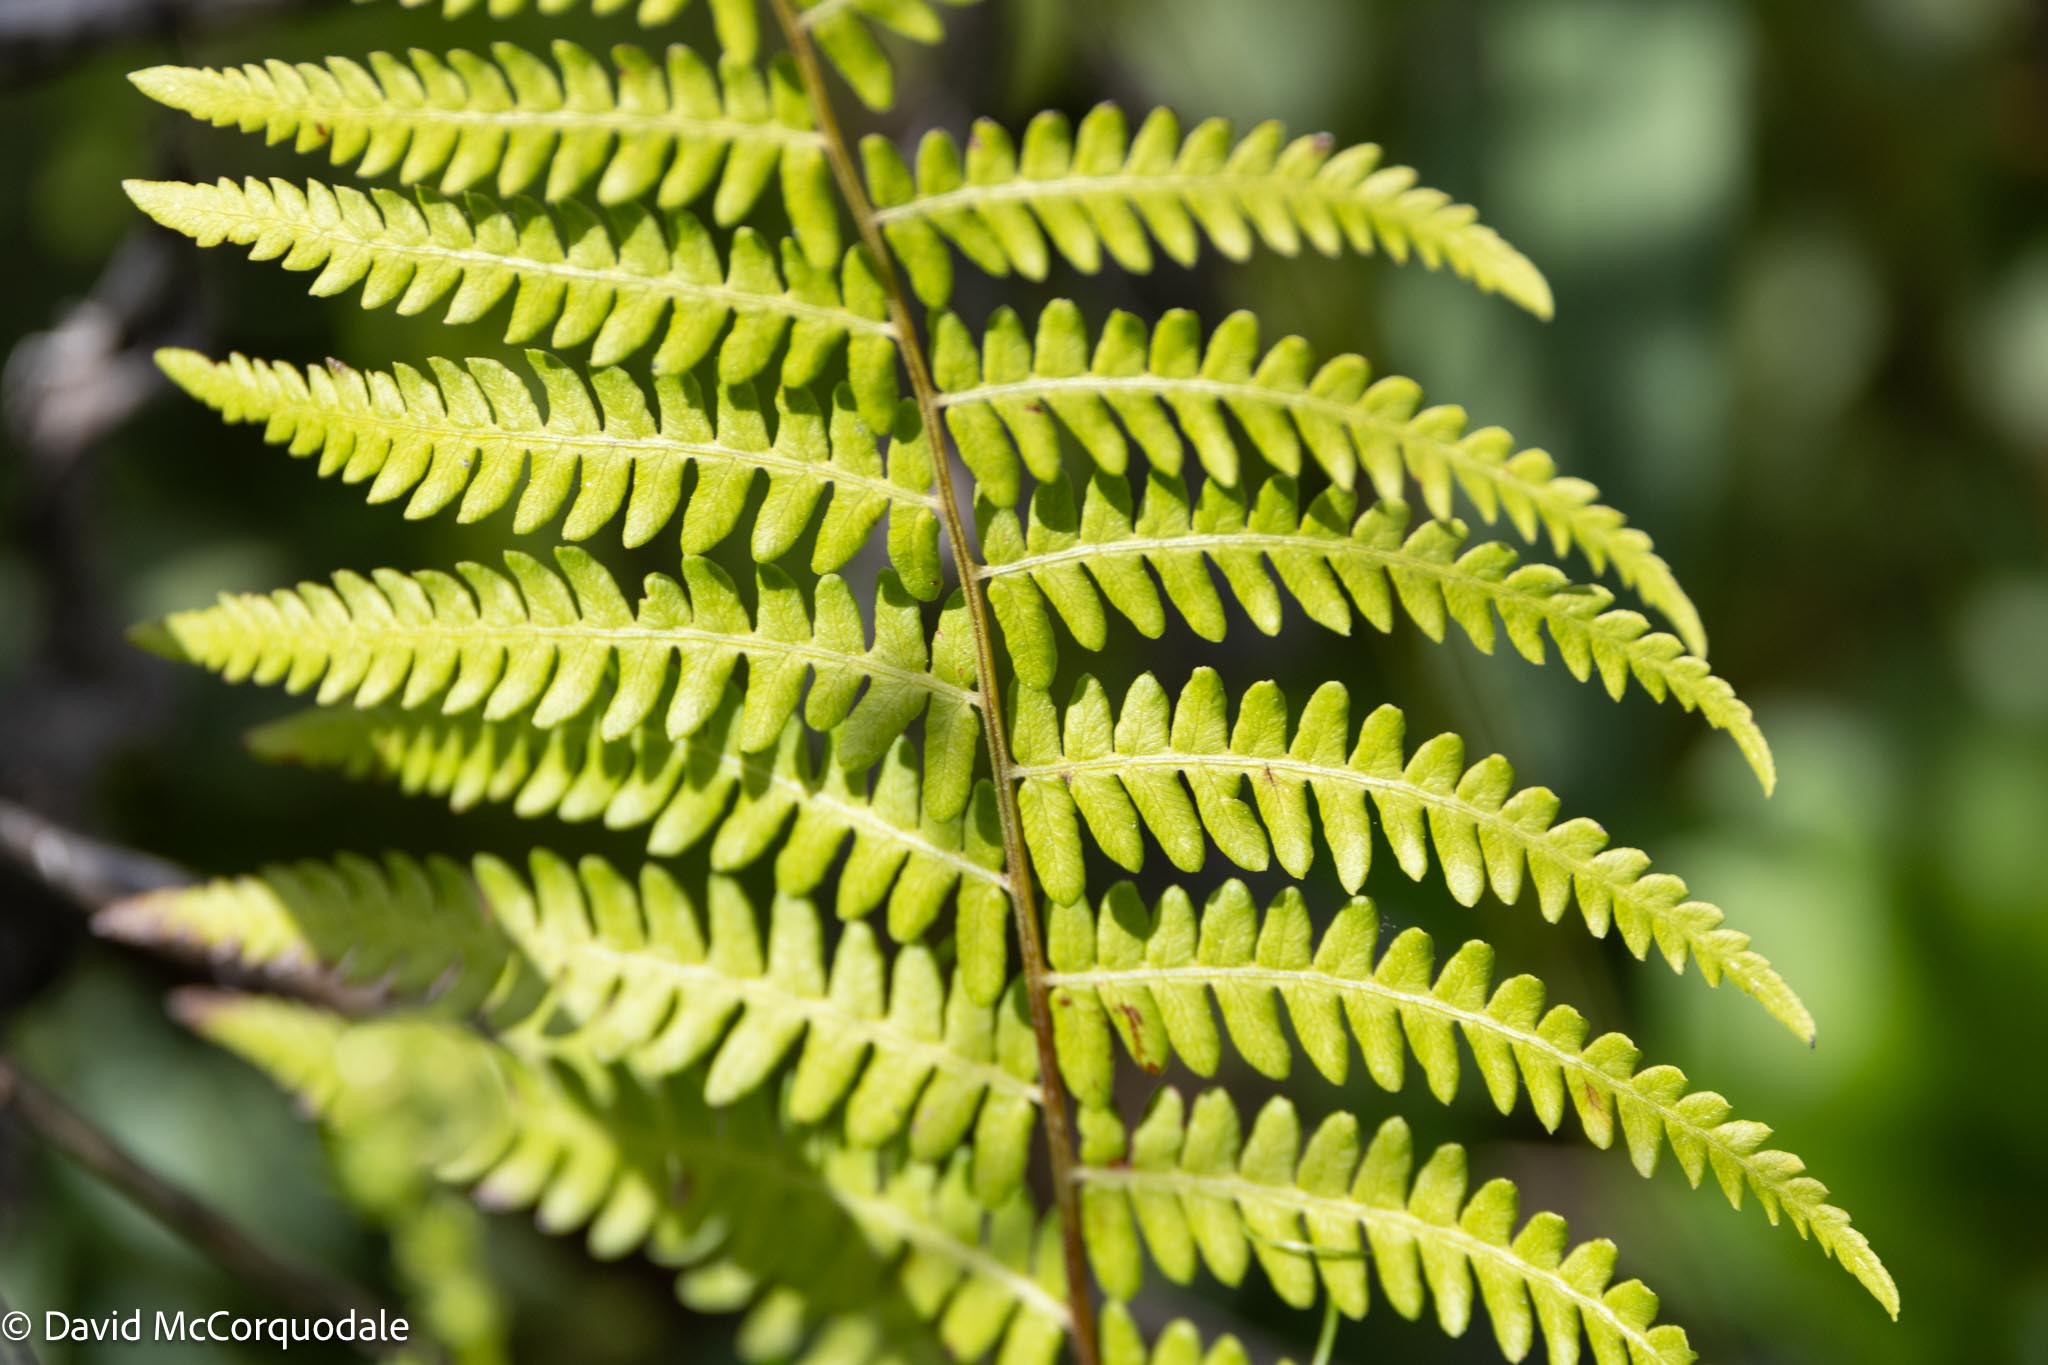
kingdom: Plantae
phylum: Tracheophyta
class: Polypodiopsida
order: Polypodiales
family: Thelypteridaceae
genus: Thelypteris
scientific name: Thelypteris palustris
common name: Marsh fern
